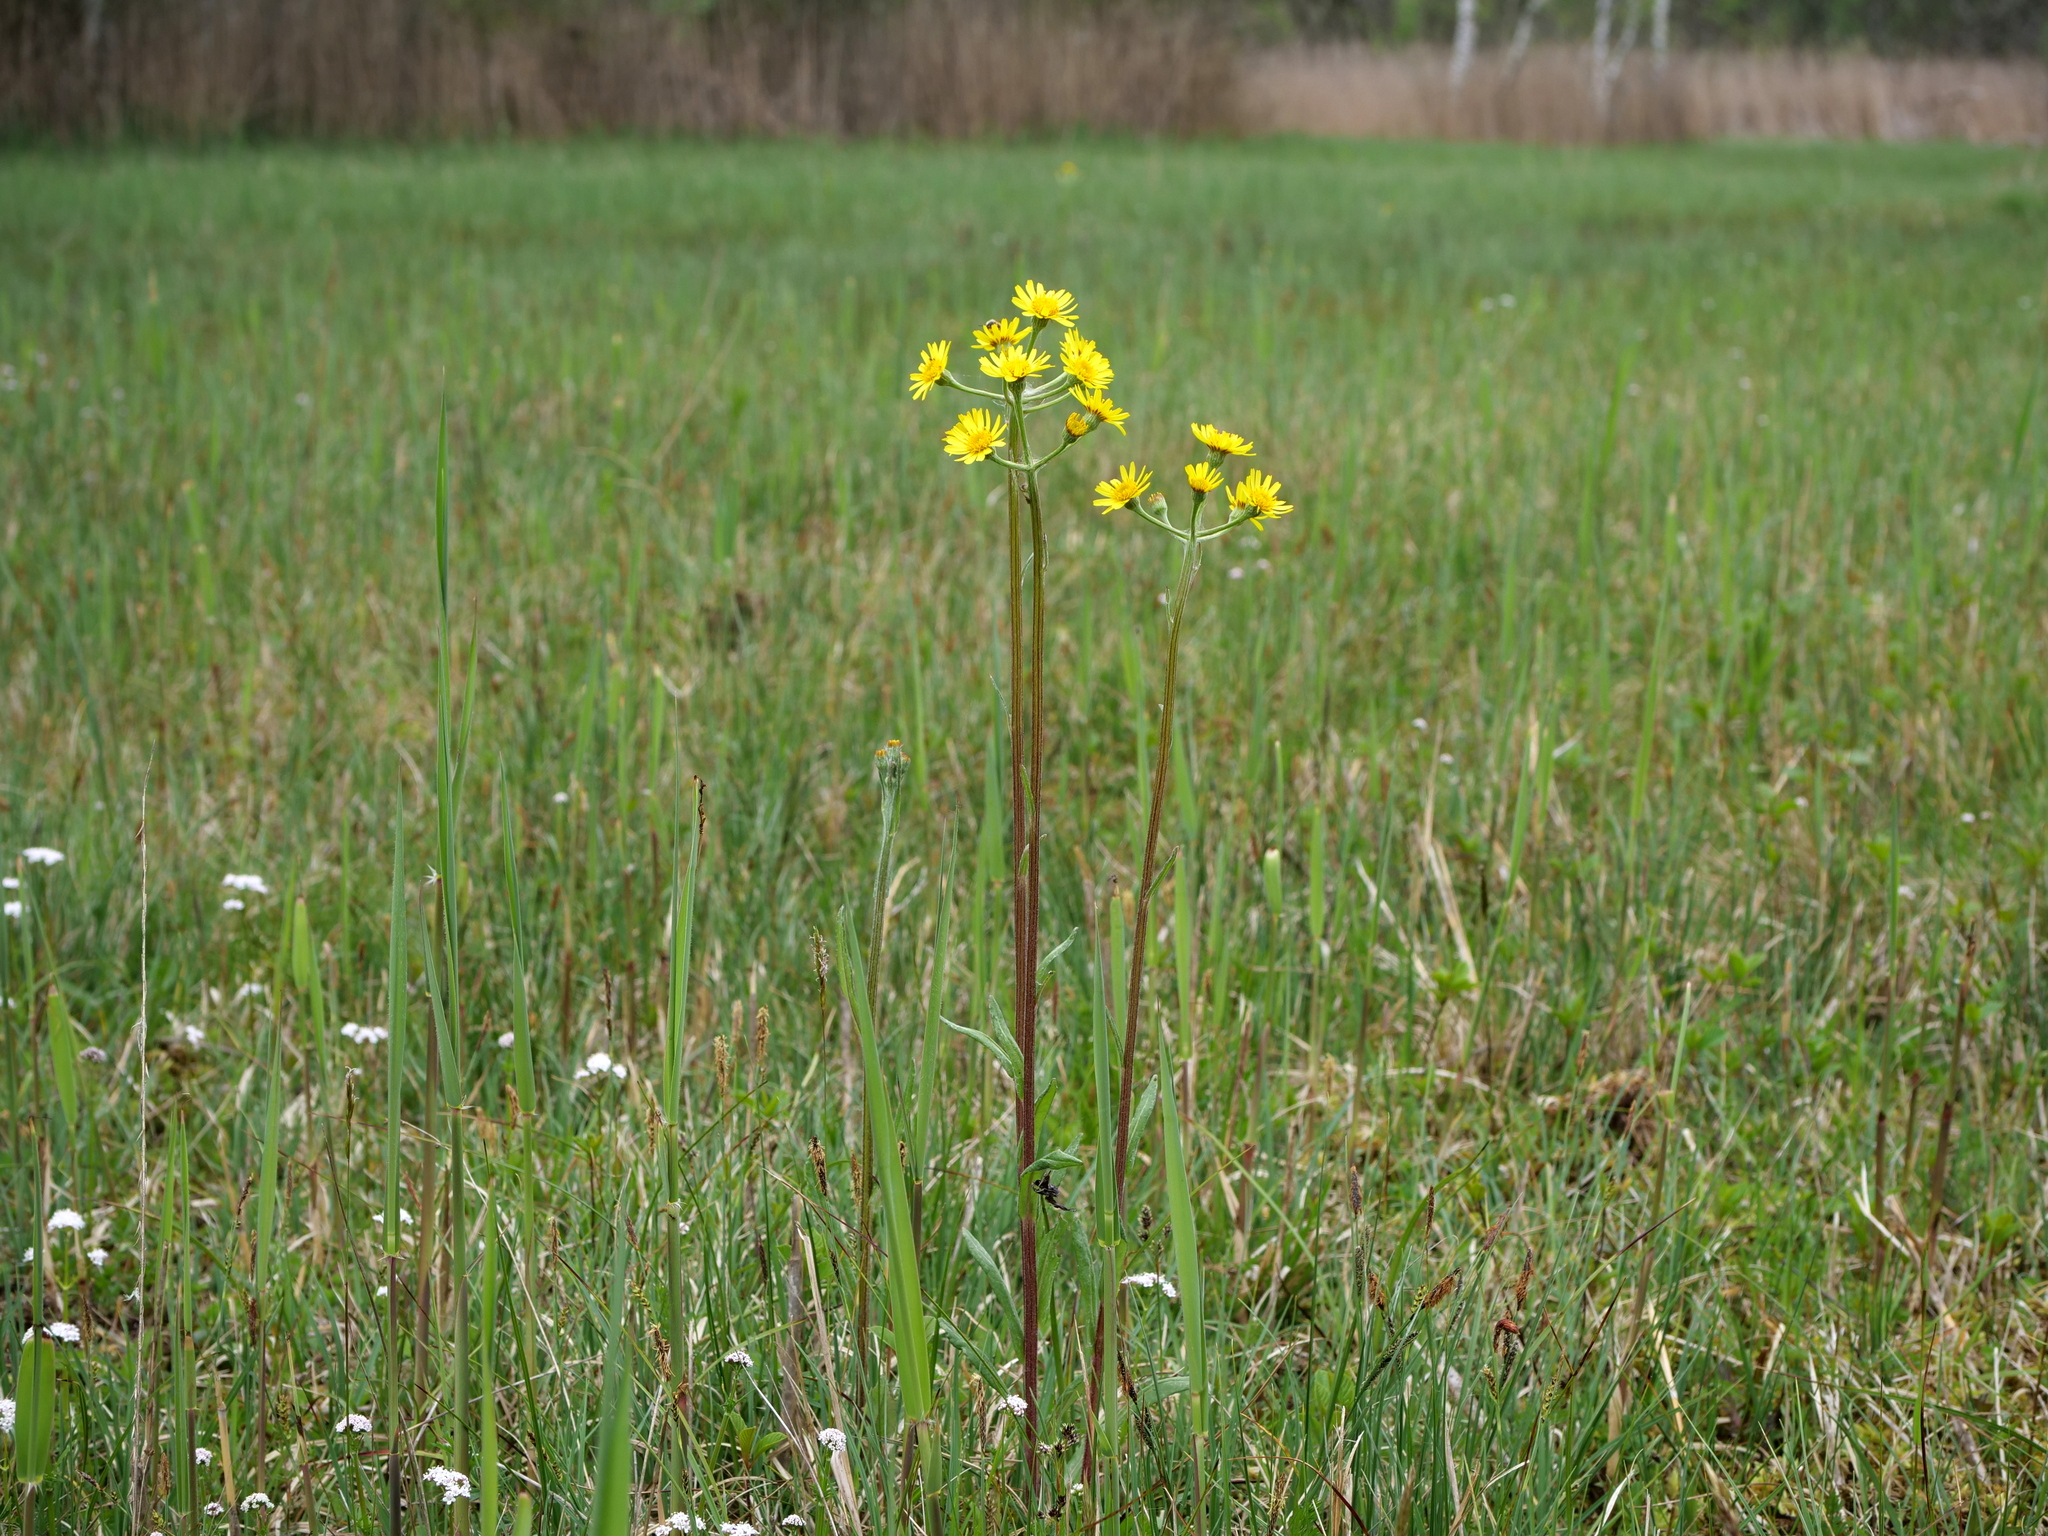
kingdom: Plantae
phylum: Tracheophyta
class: Magnoliopsida
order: Asterales
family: Asteraceae
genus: Tephroseris
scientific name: Tephroseris helenitis
